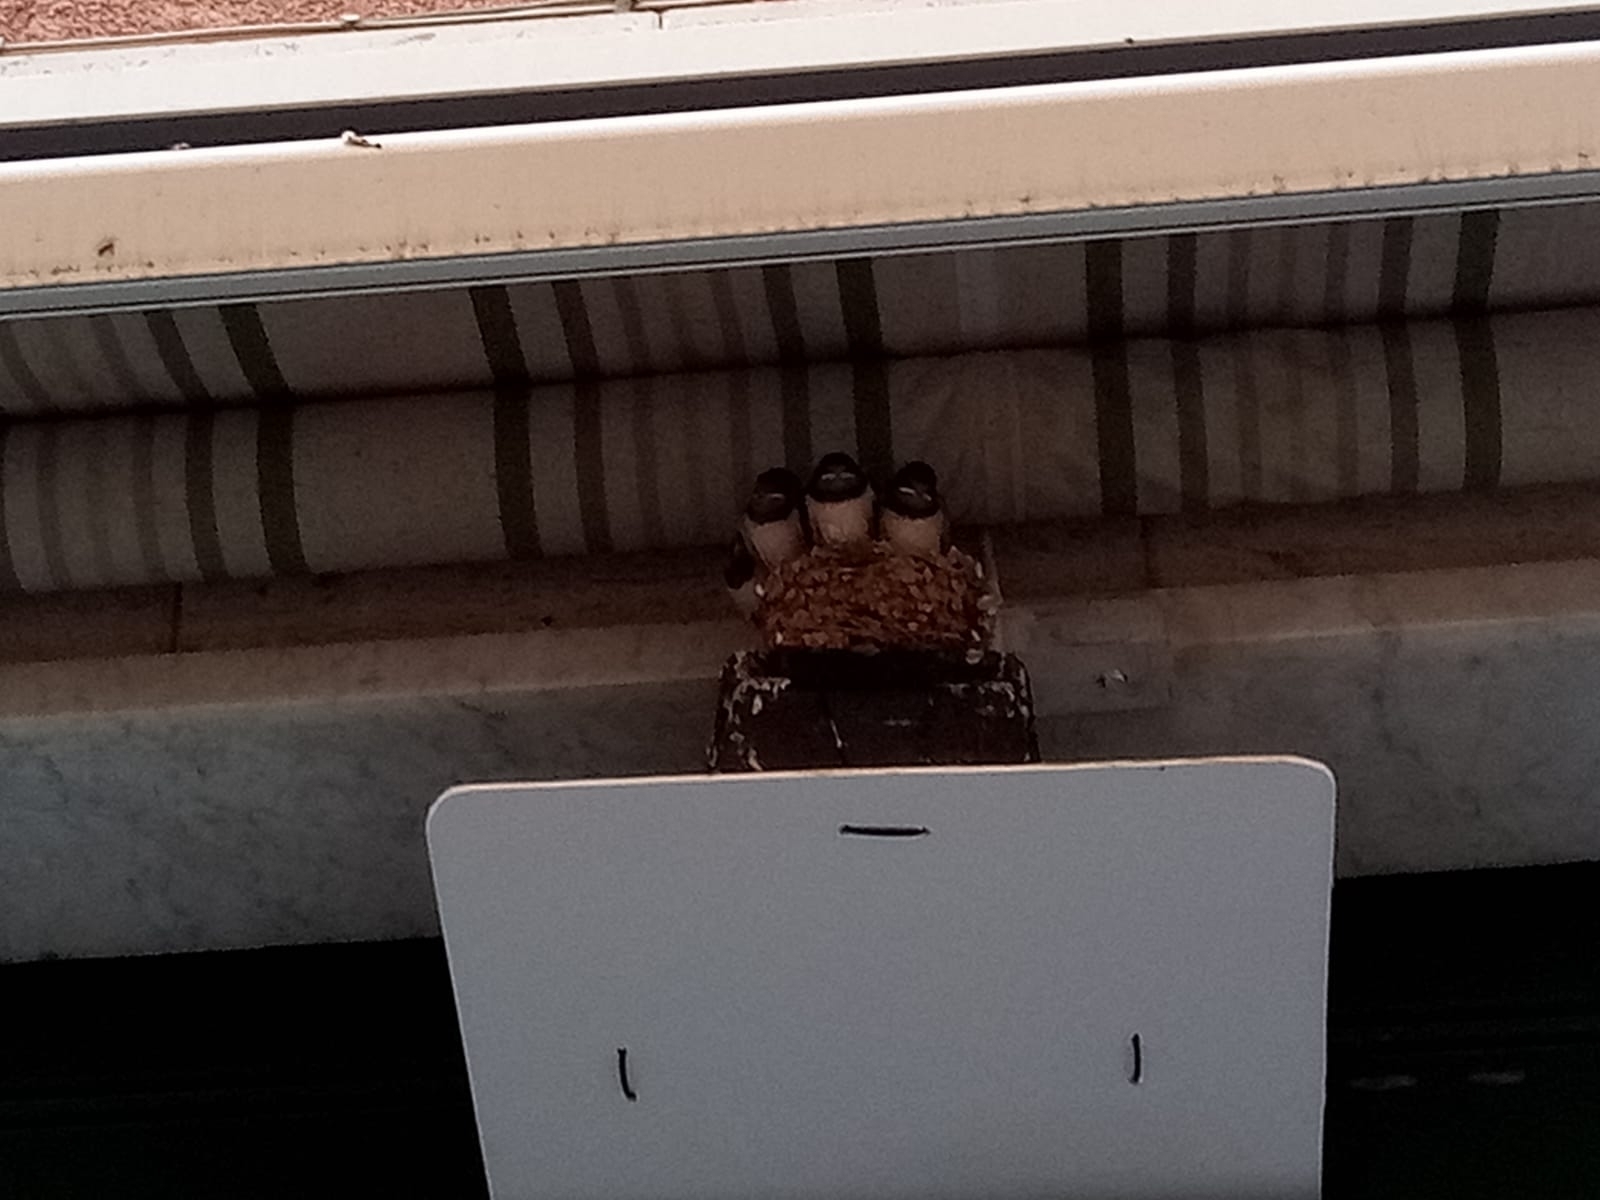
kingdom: Animalia
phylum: Chordata
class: Aves
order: Passeriformes
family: Hirundinidae
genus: Hirundo
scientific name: Hirundo rustica
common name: Barn swallow
